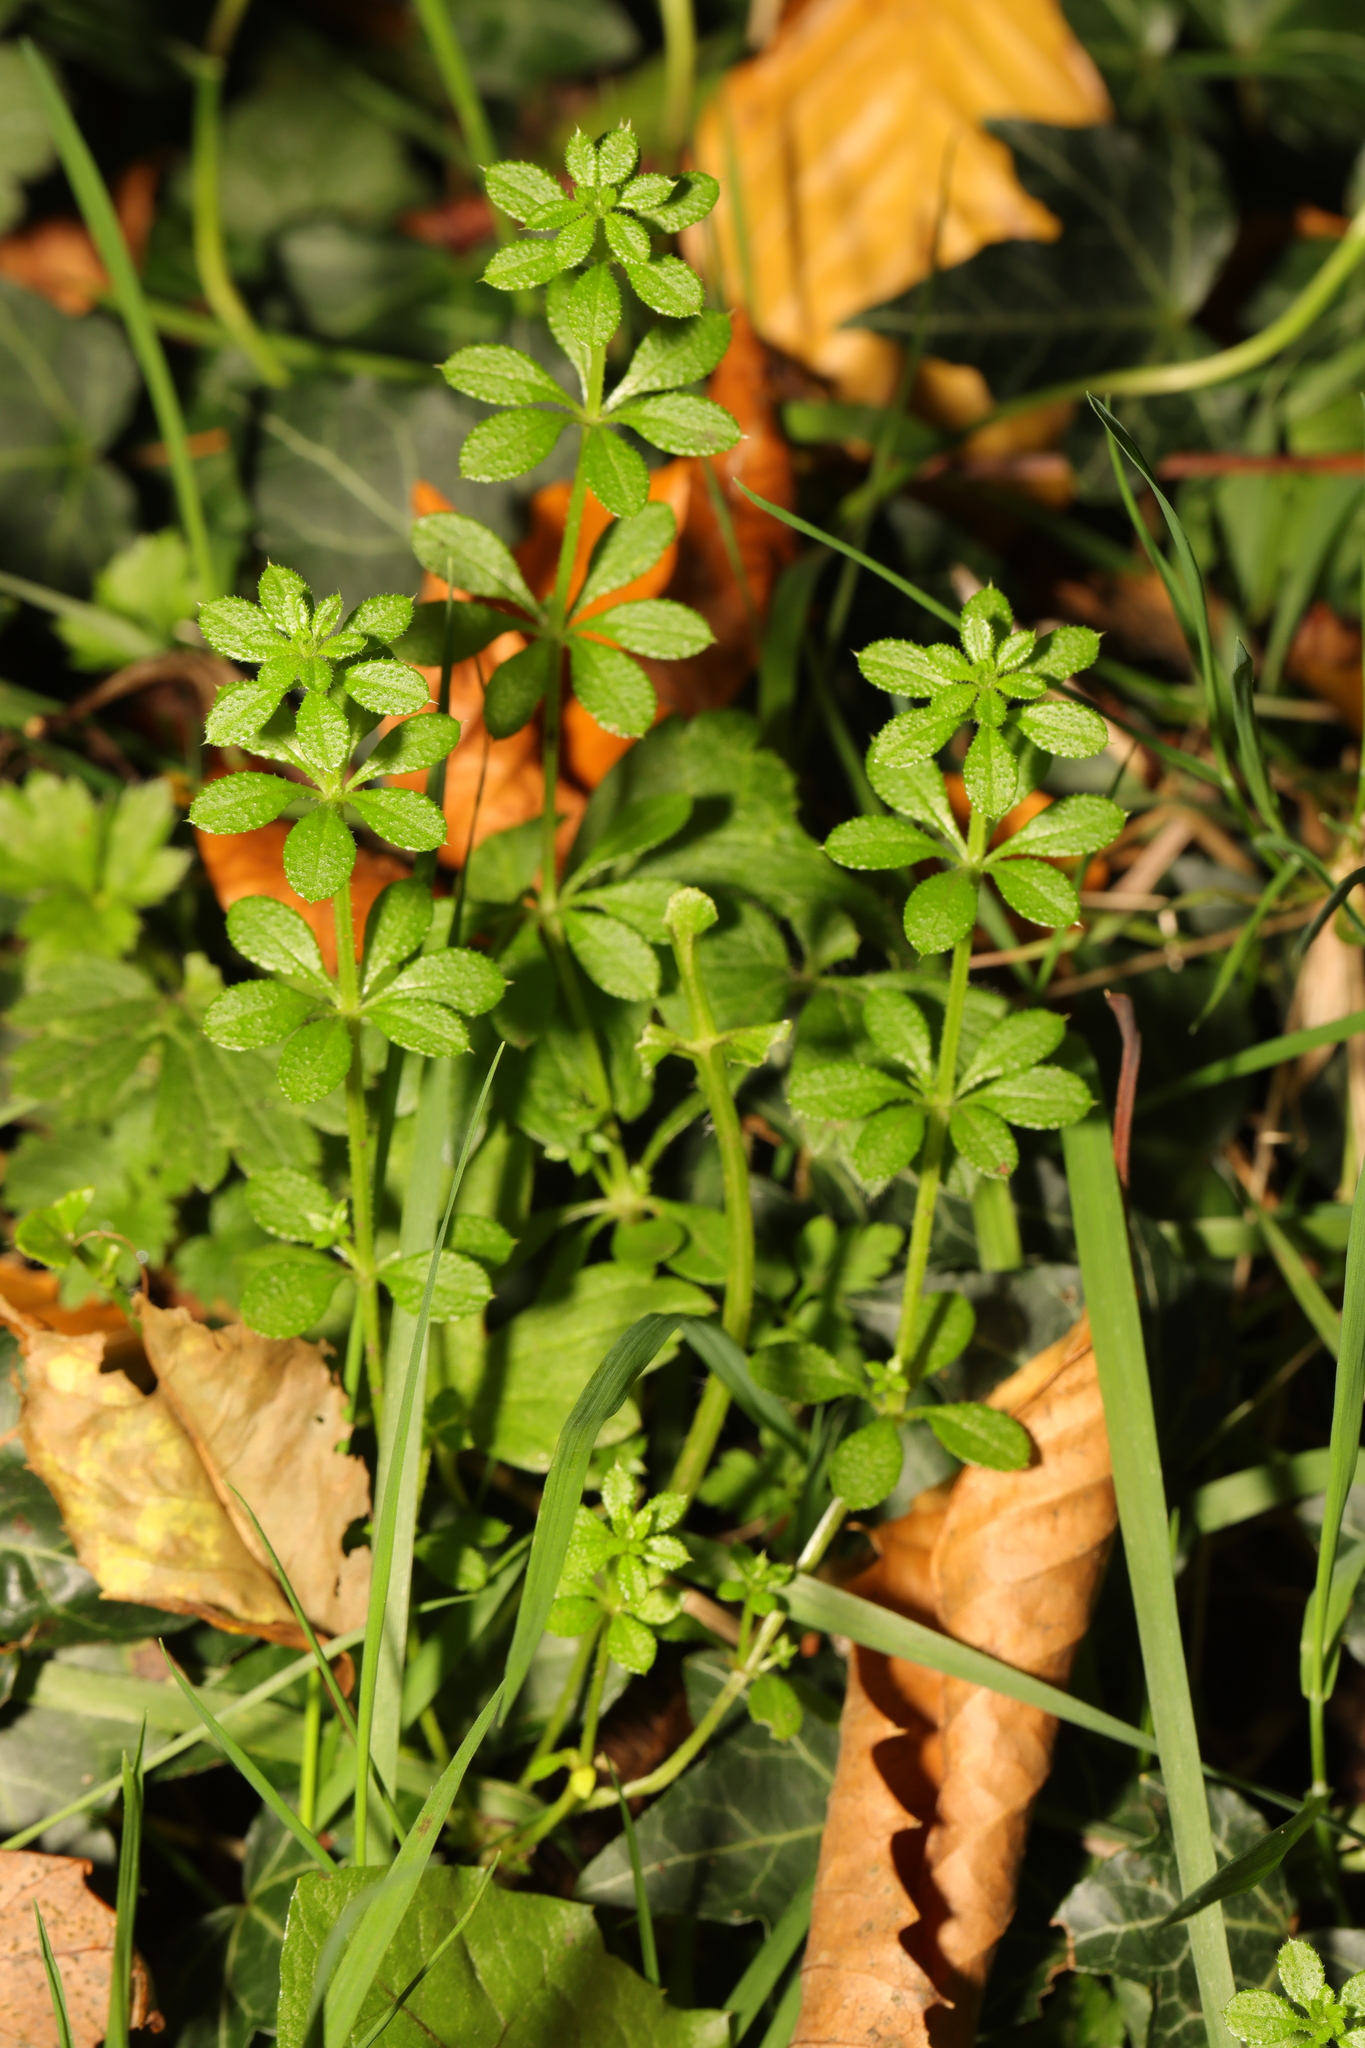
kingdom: Plantae
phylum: Tracheophyta
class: Magnoliopsida
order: Gentianales
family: Rubiaceae
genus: Galium
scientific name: Galium aparine
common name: Cleavers
